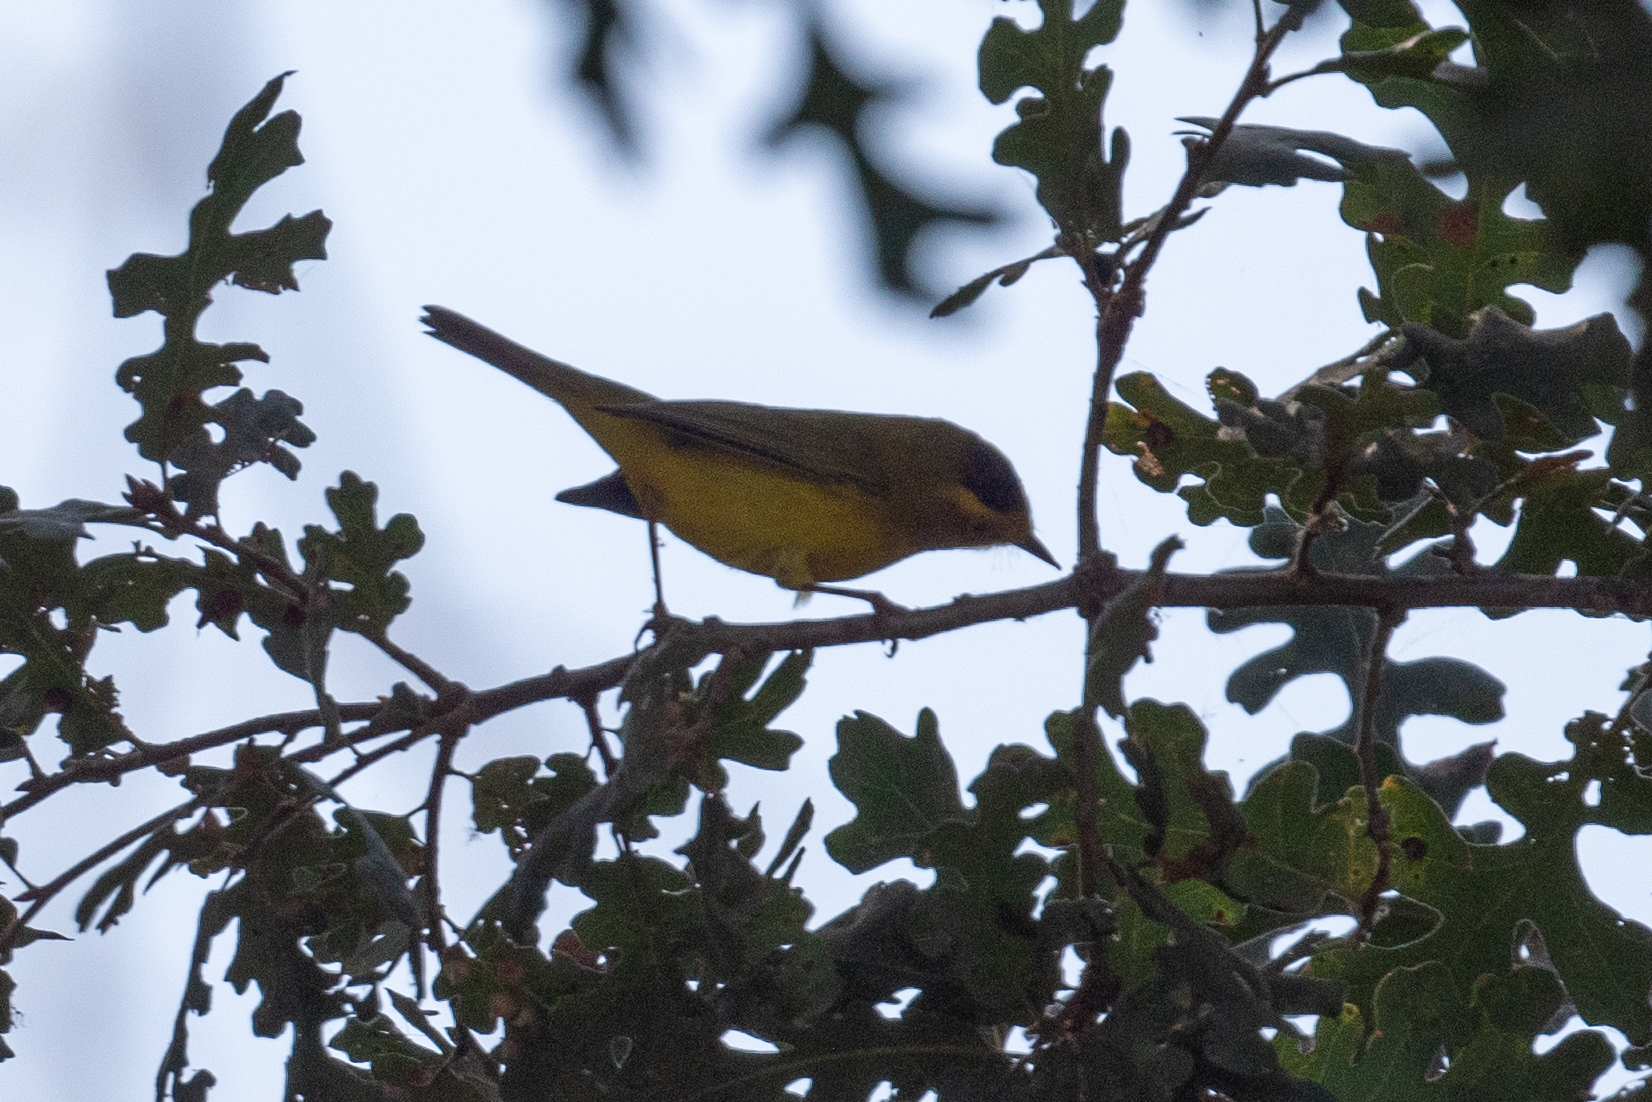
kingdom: Animalia
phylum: Chordata
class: Aves
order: Passeriformes
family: Parulidae
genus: Cardellina
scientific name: Cardellina pusilla
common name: Wilson's warbler
